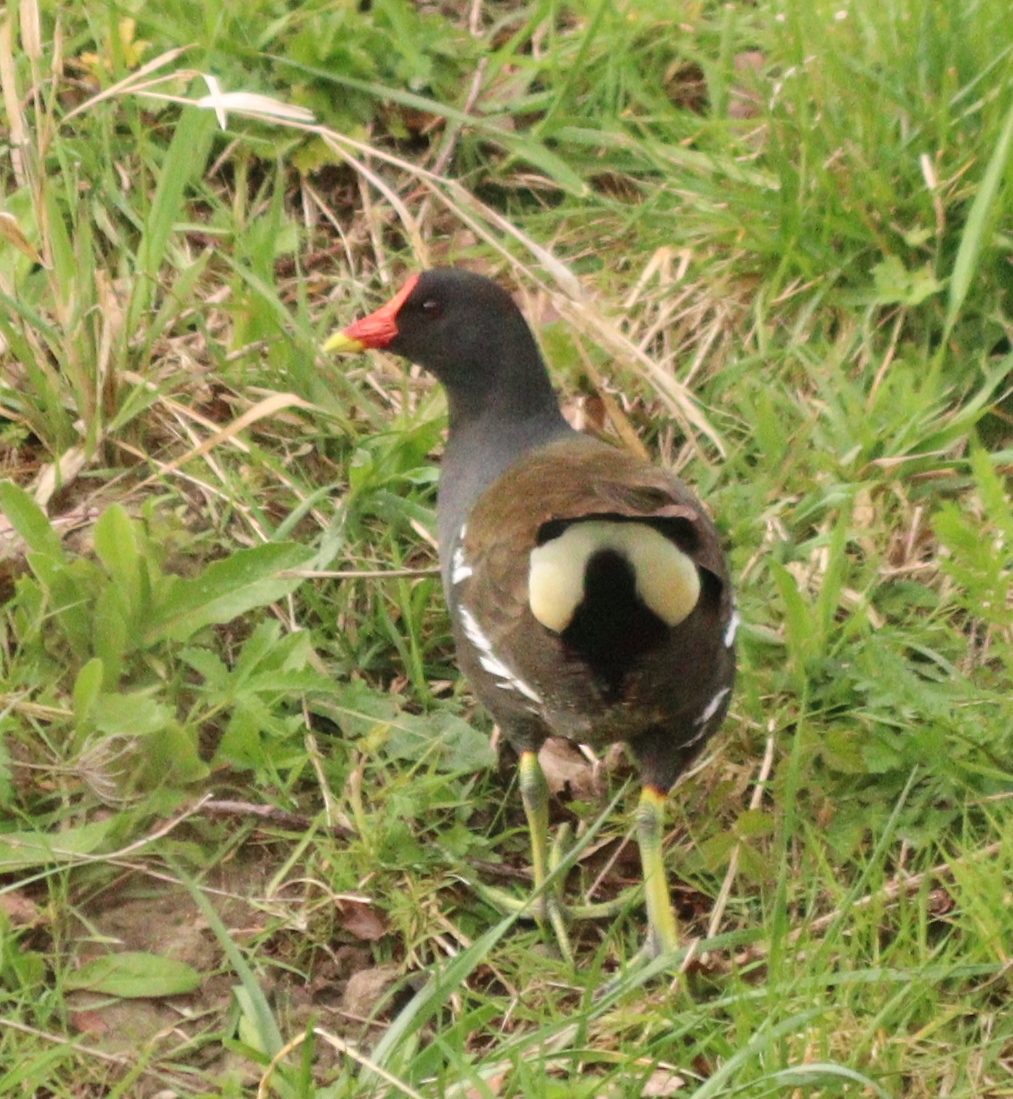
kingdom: Animalia
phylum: Chordata
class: Aves
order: Gruiformes
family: Rallidae
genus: Gallinula
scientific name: Gallinula chloropus
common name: Common moorhen
